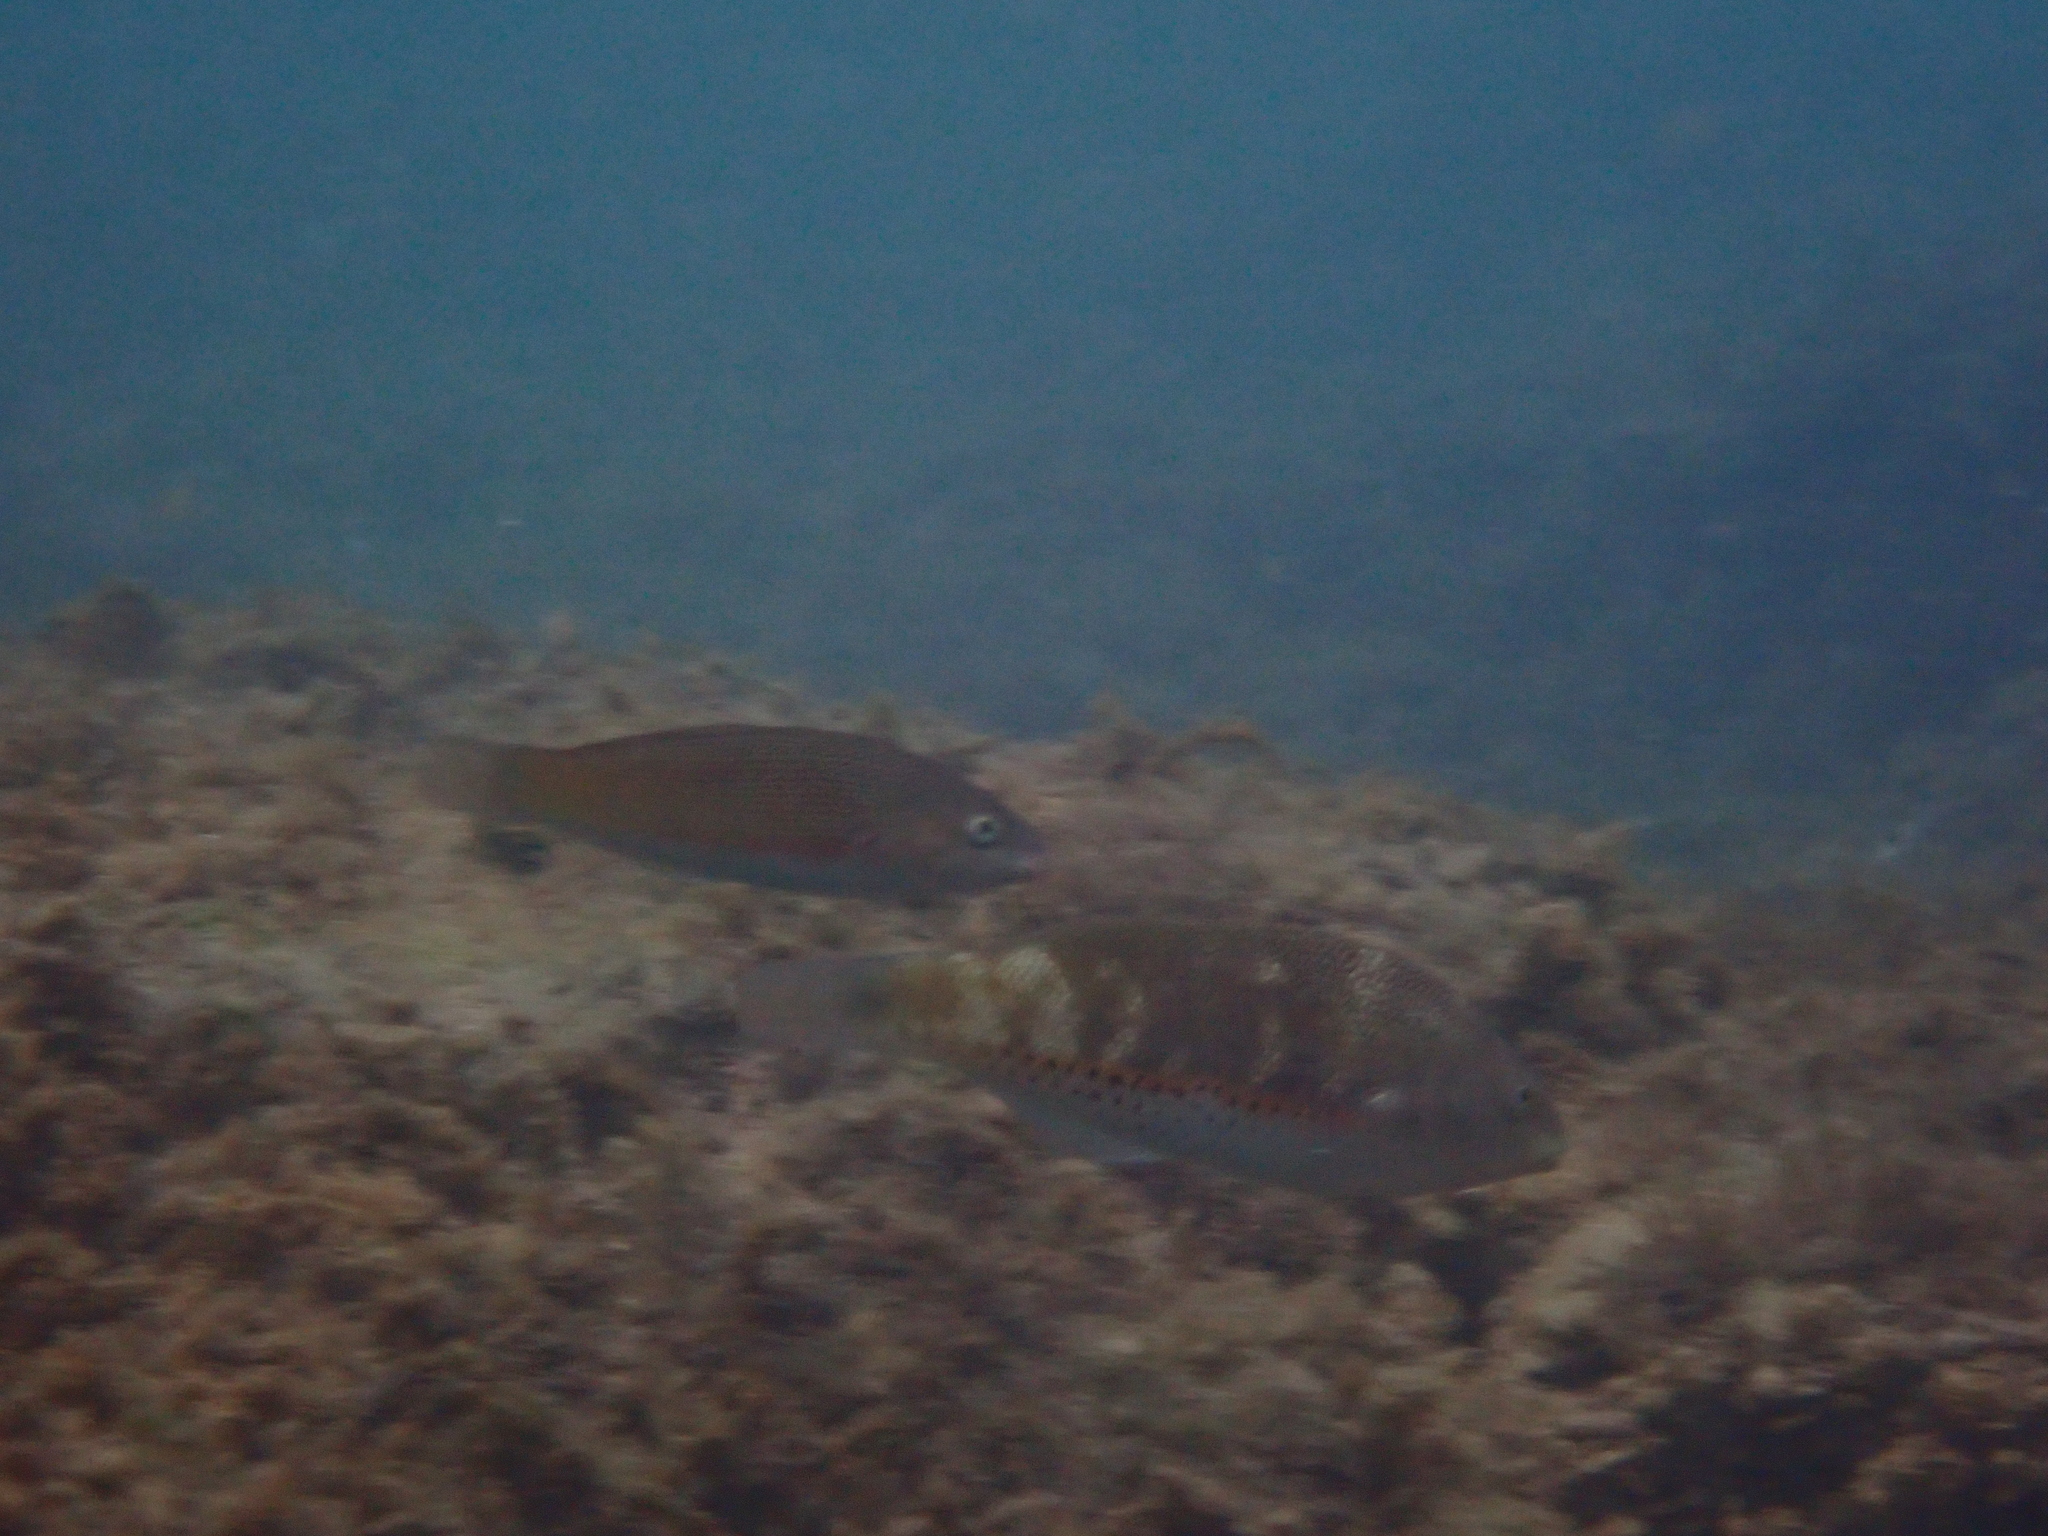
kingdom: Animalia
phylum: Chordata
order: Perciformes
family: Labridae
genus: Stethojulis
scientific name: Stethojulis trilineata
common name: Blue-ribbon wrasse
